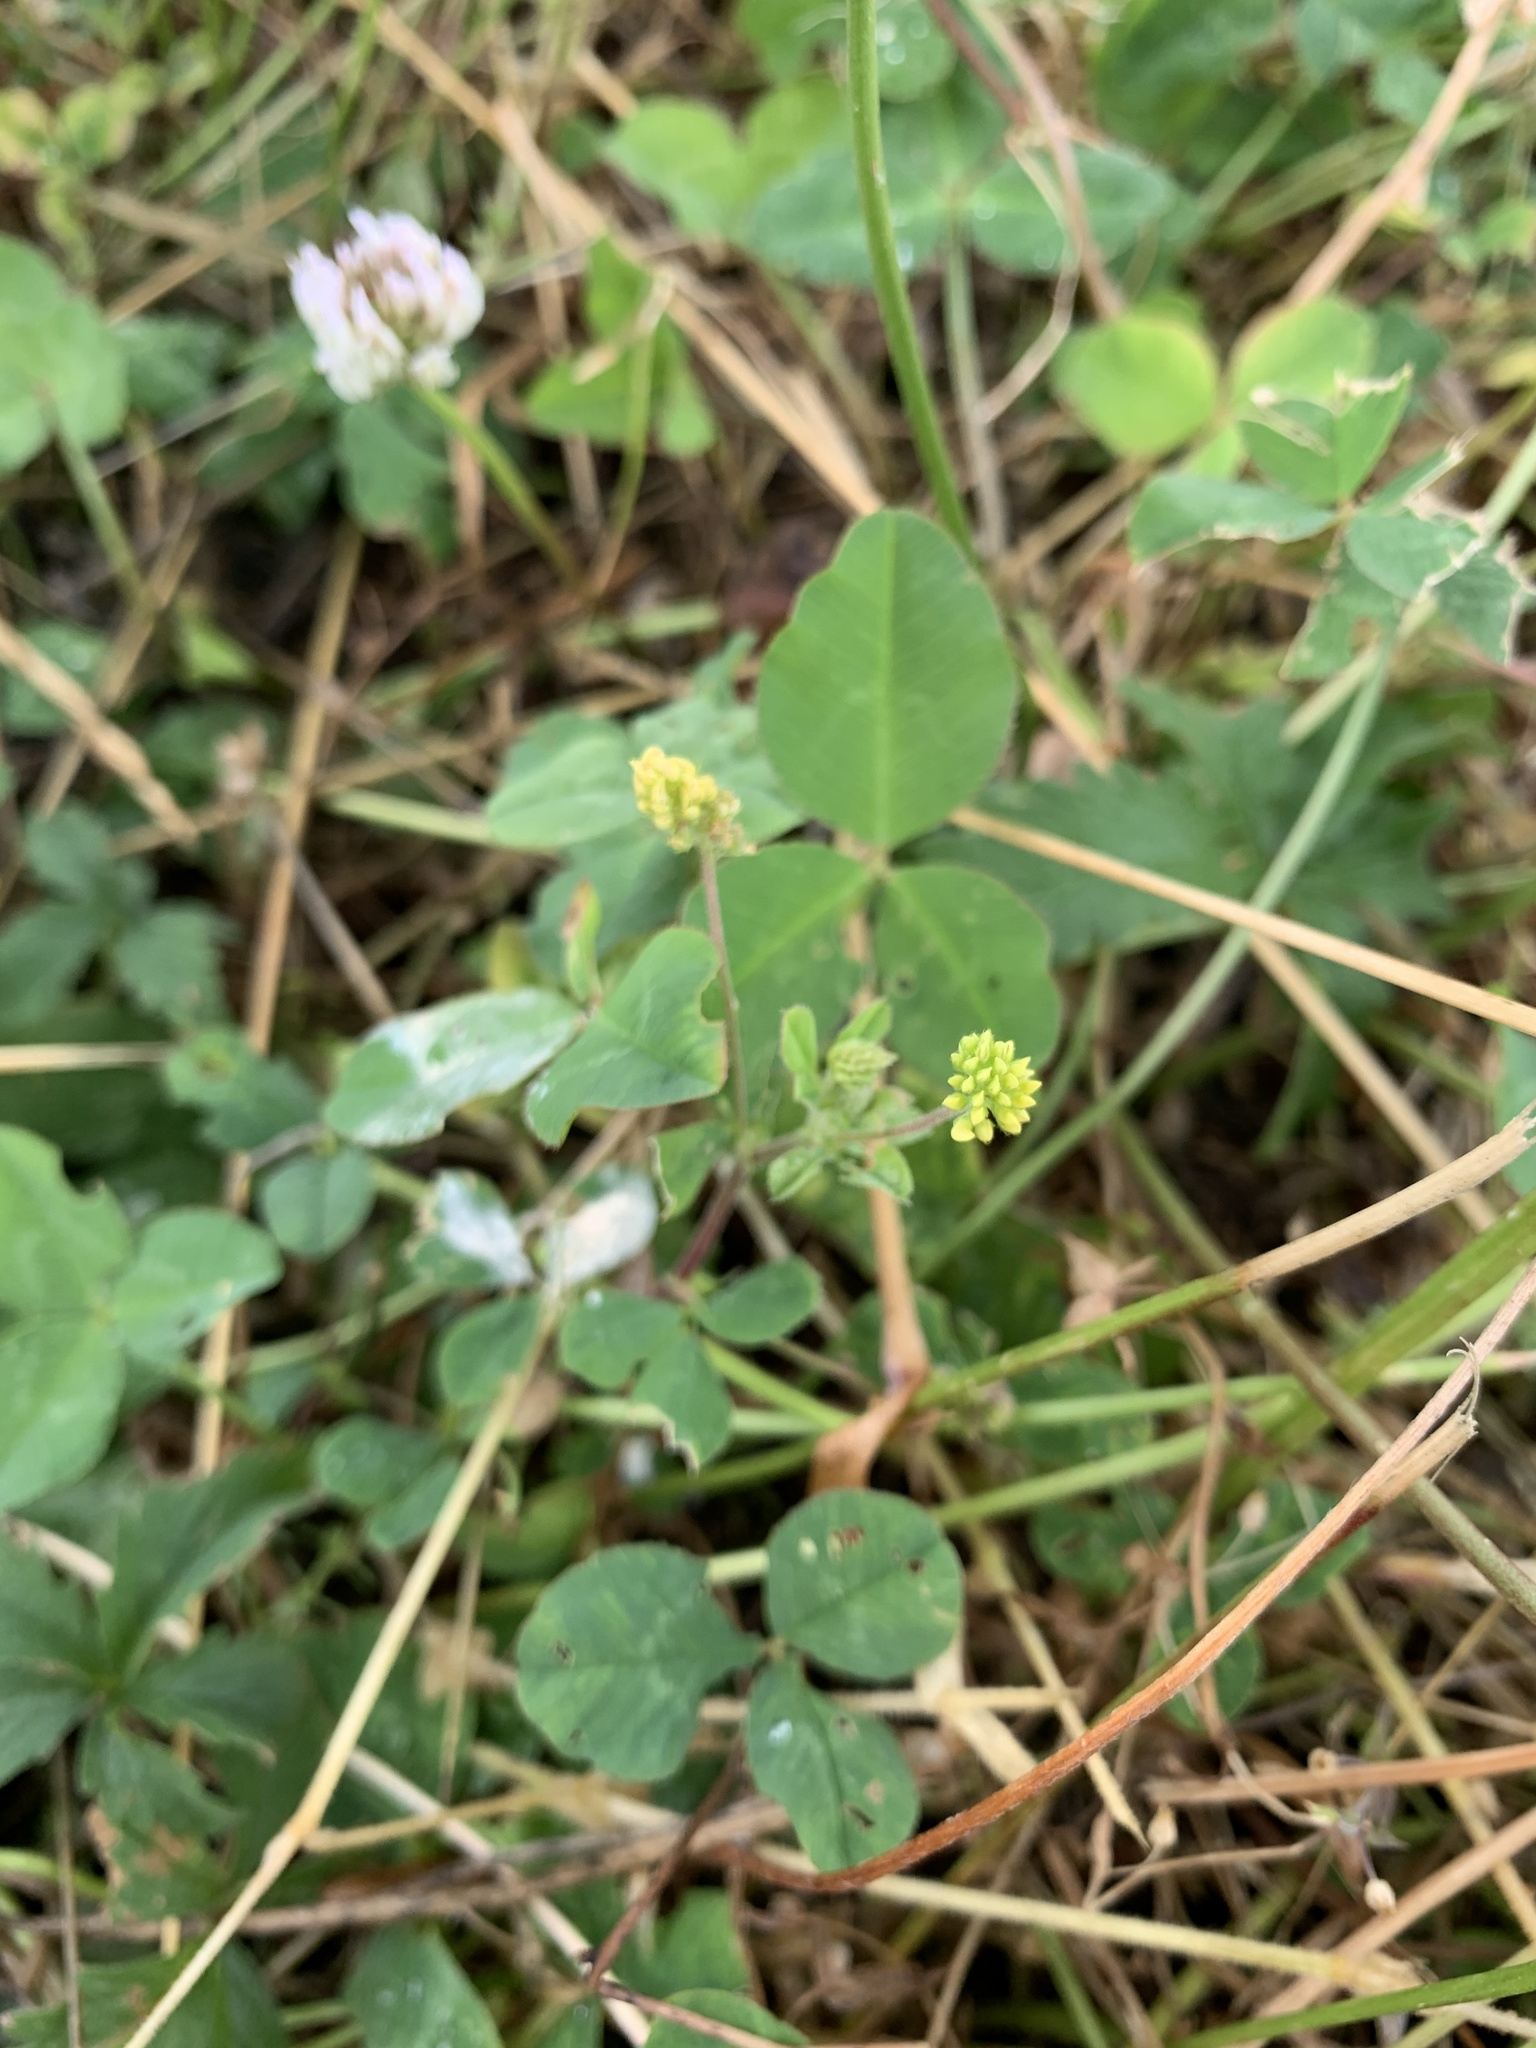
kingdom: Plantae
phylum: Tracheophyta
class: Magnoliopsida
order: Fabales
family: Fabaceae
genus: Medicago
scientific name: Medicago lupulina
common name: Black medick
